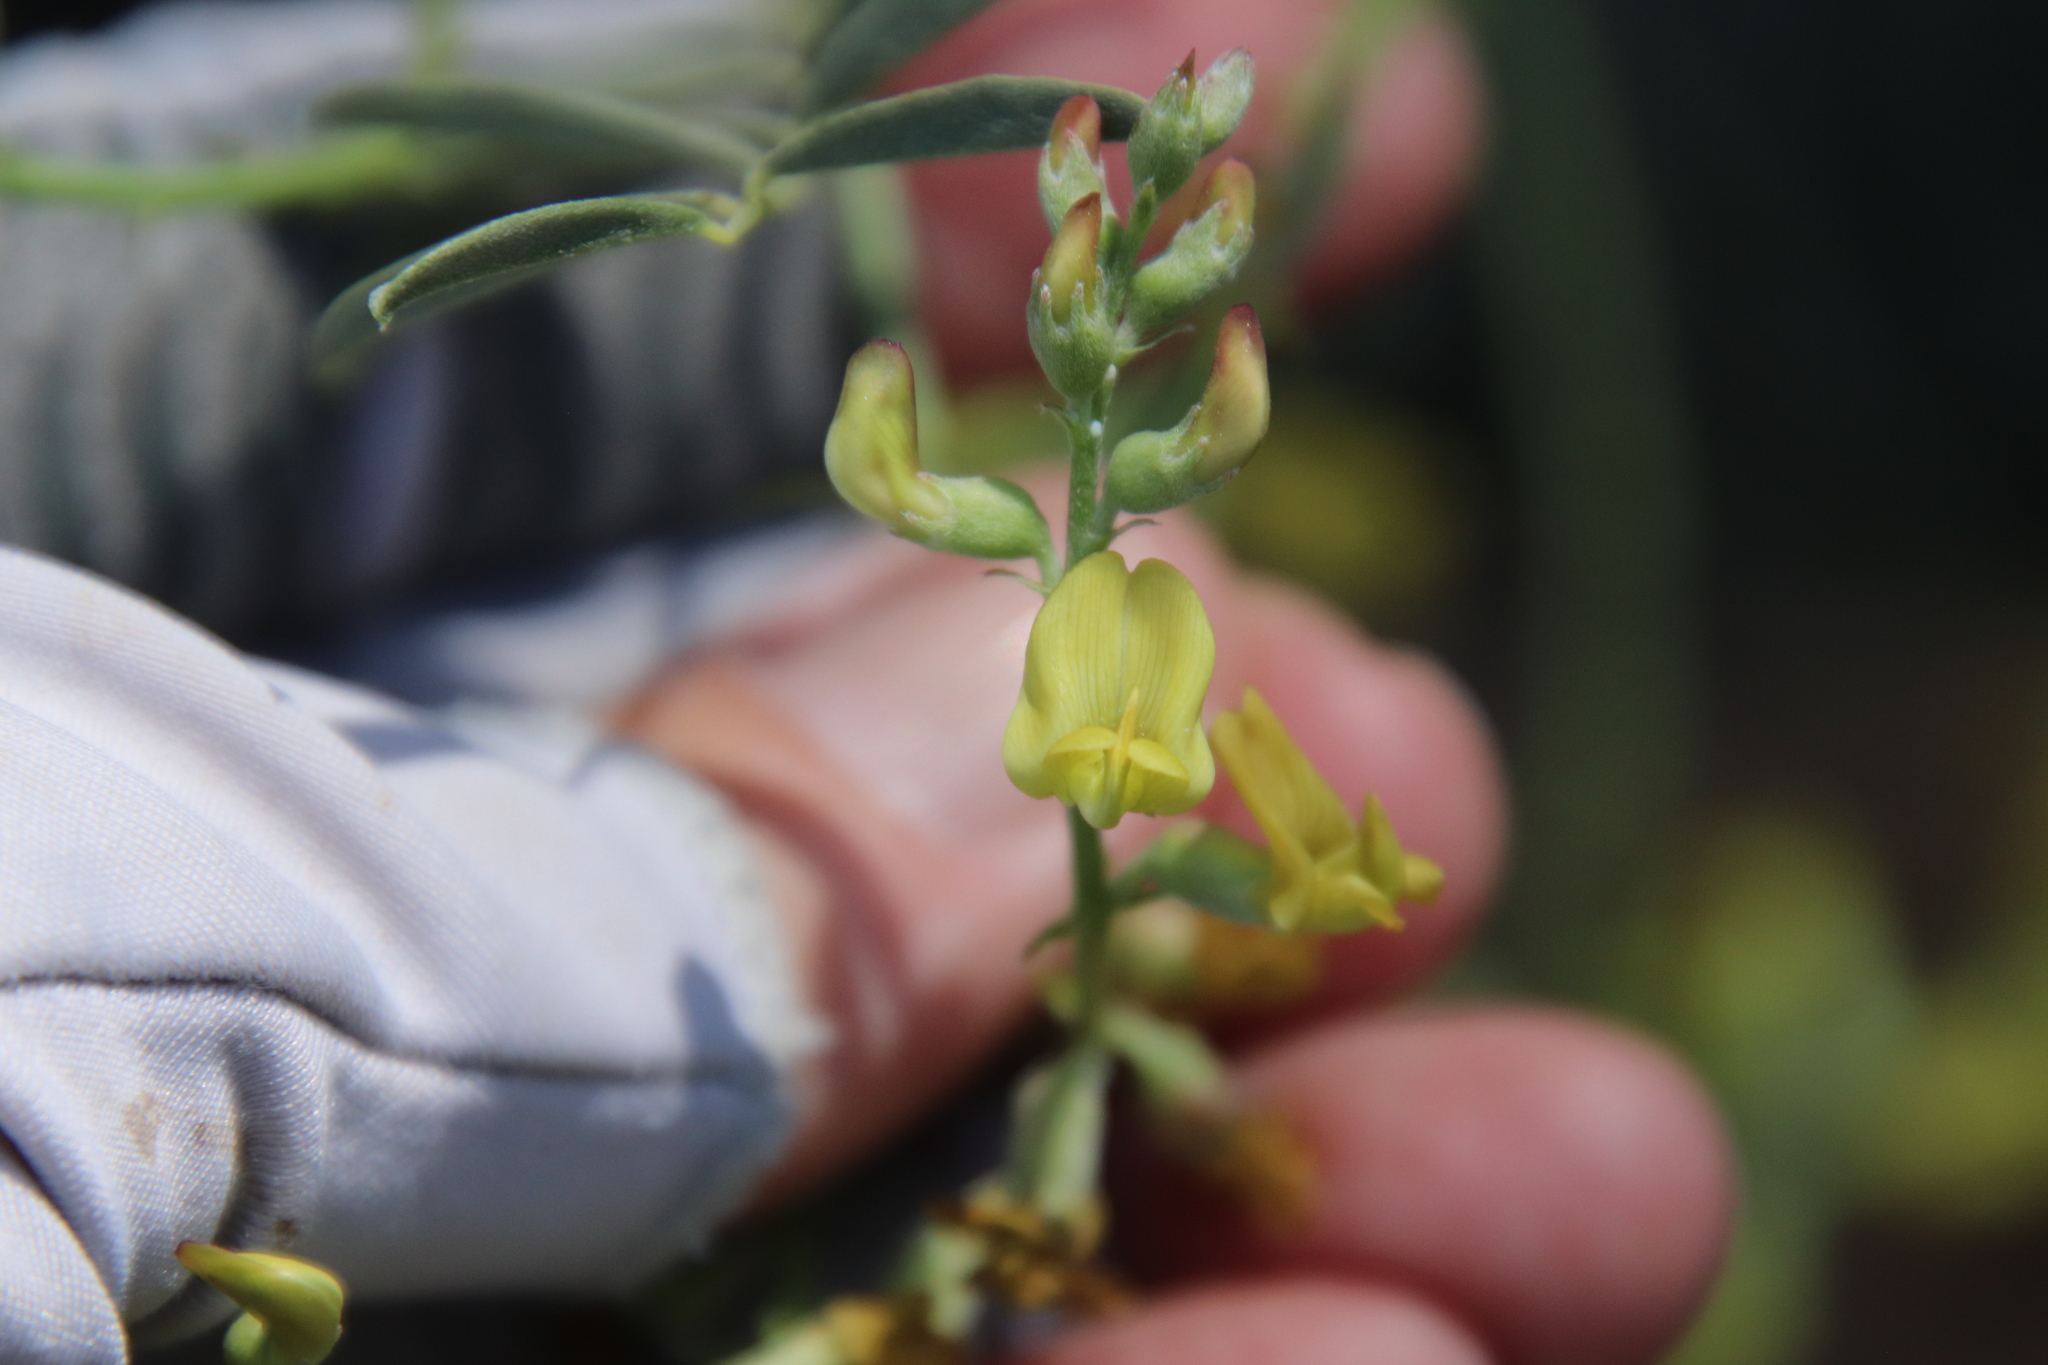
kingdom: Plantae
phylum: Tracheophyta
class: Magnoliopsida
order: Fabales
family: Fabaceae
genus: Astragalus
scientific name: Astragalus douglasii
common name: Jacumba milkvetch
